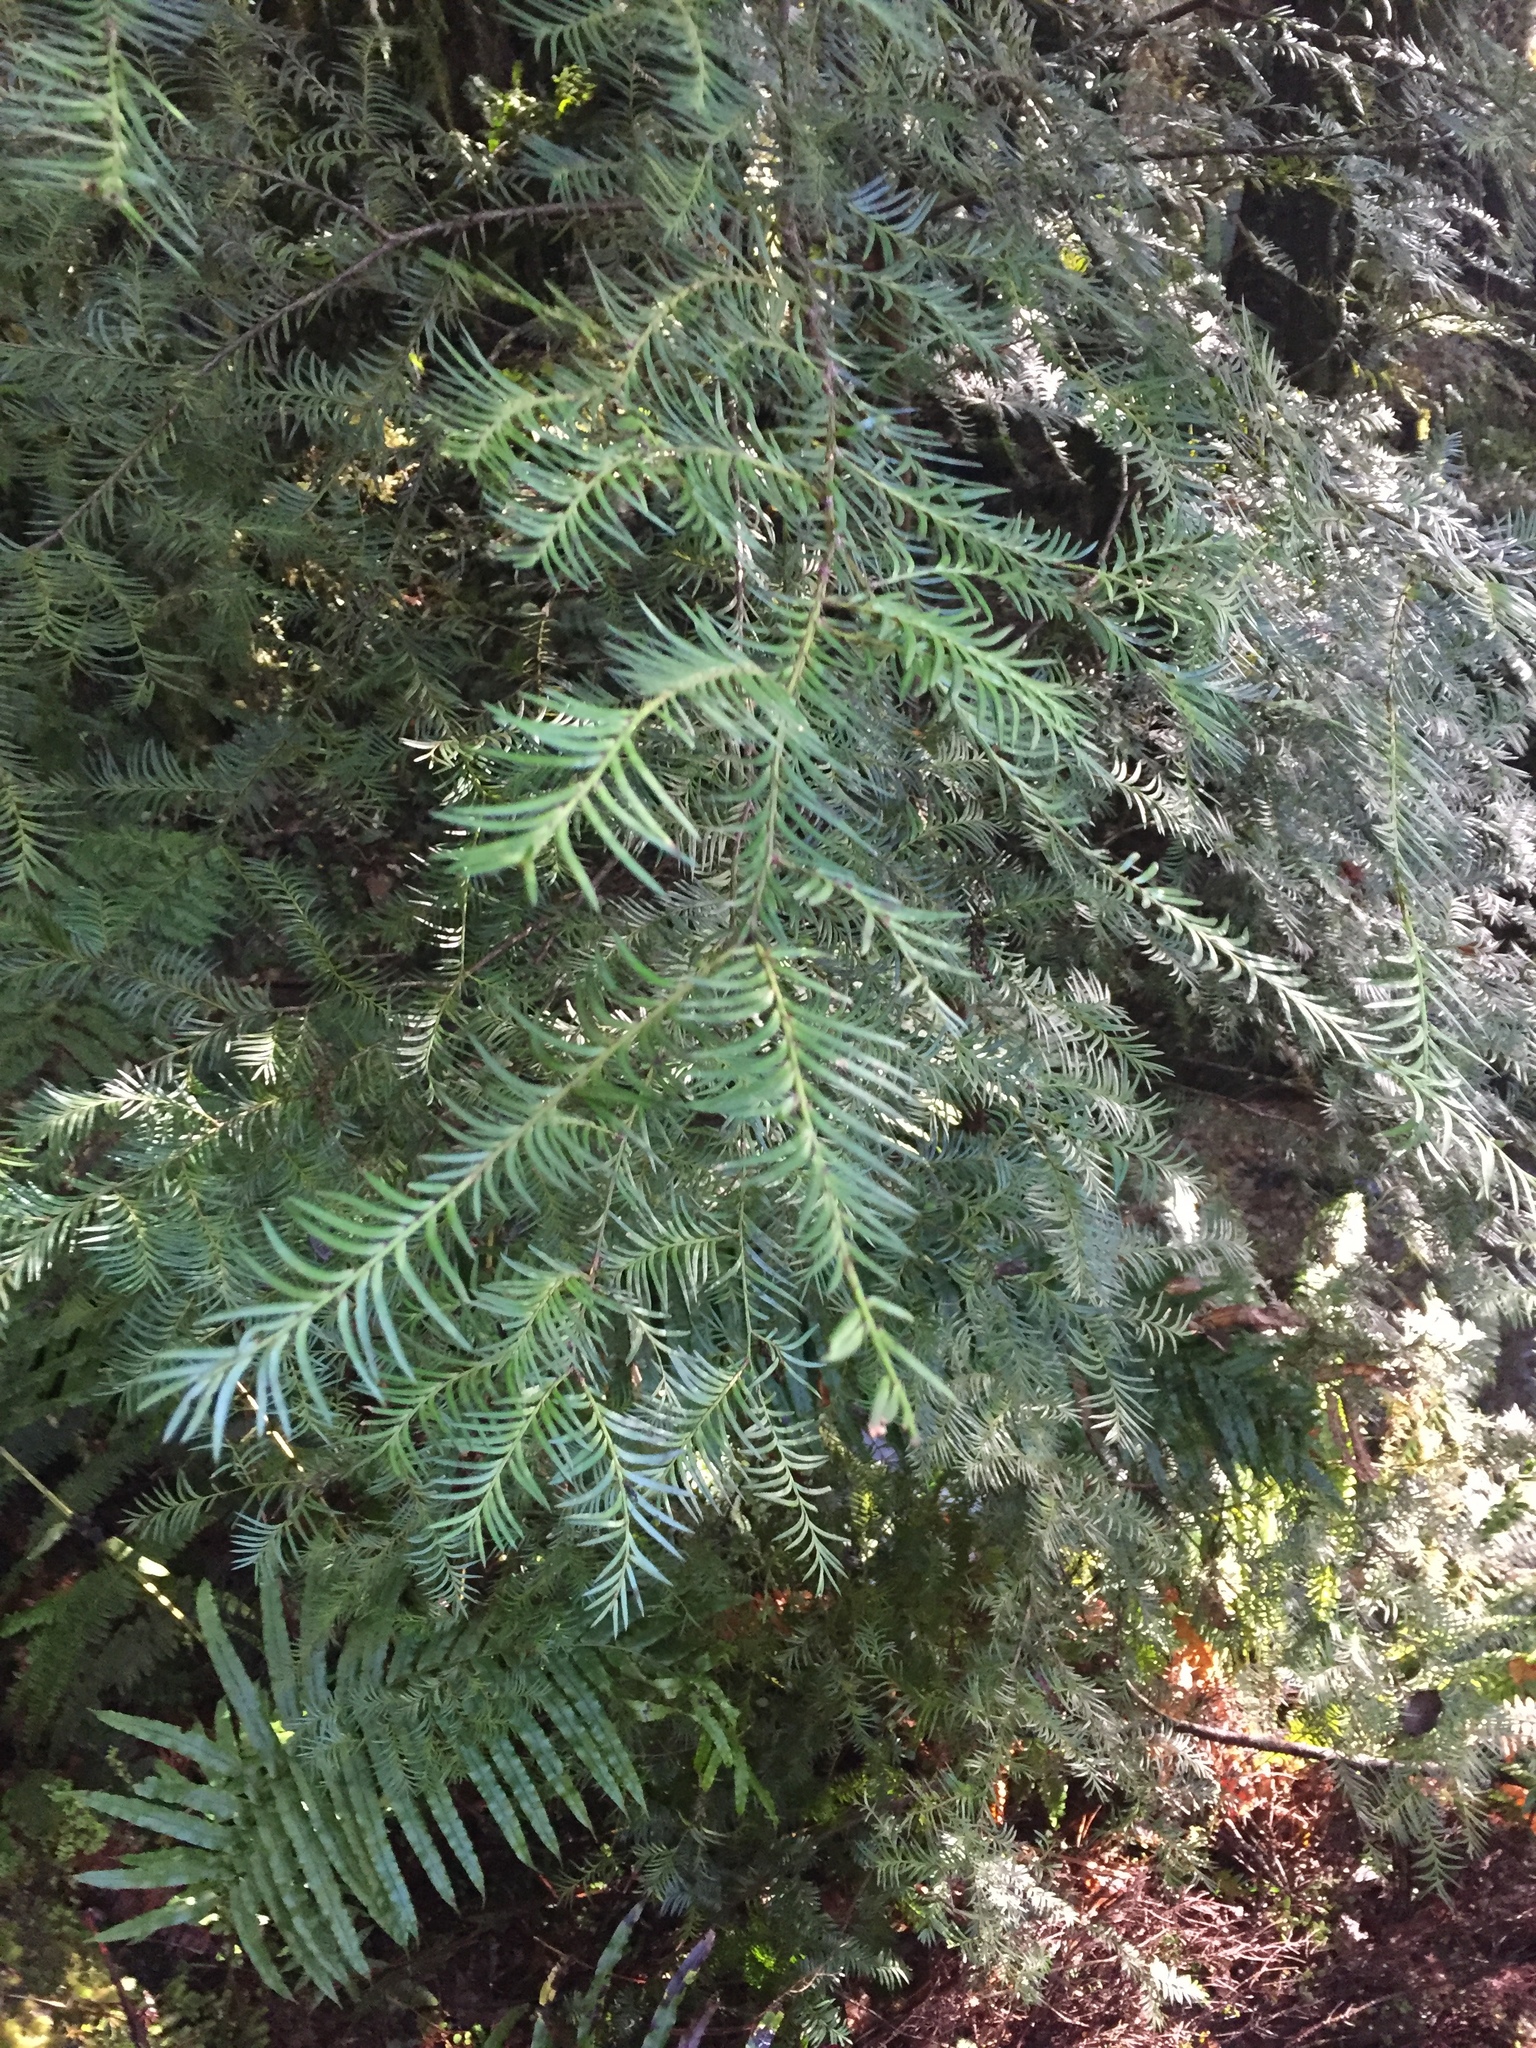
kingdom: Plantae
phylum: Tracheophyta
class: Pinopsida
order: Pinales
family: Podocarpaceae
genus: Prumnopitys
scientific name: Prumnopitys ferruginea
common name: Brown pine
